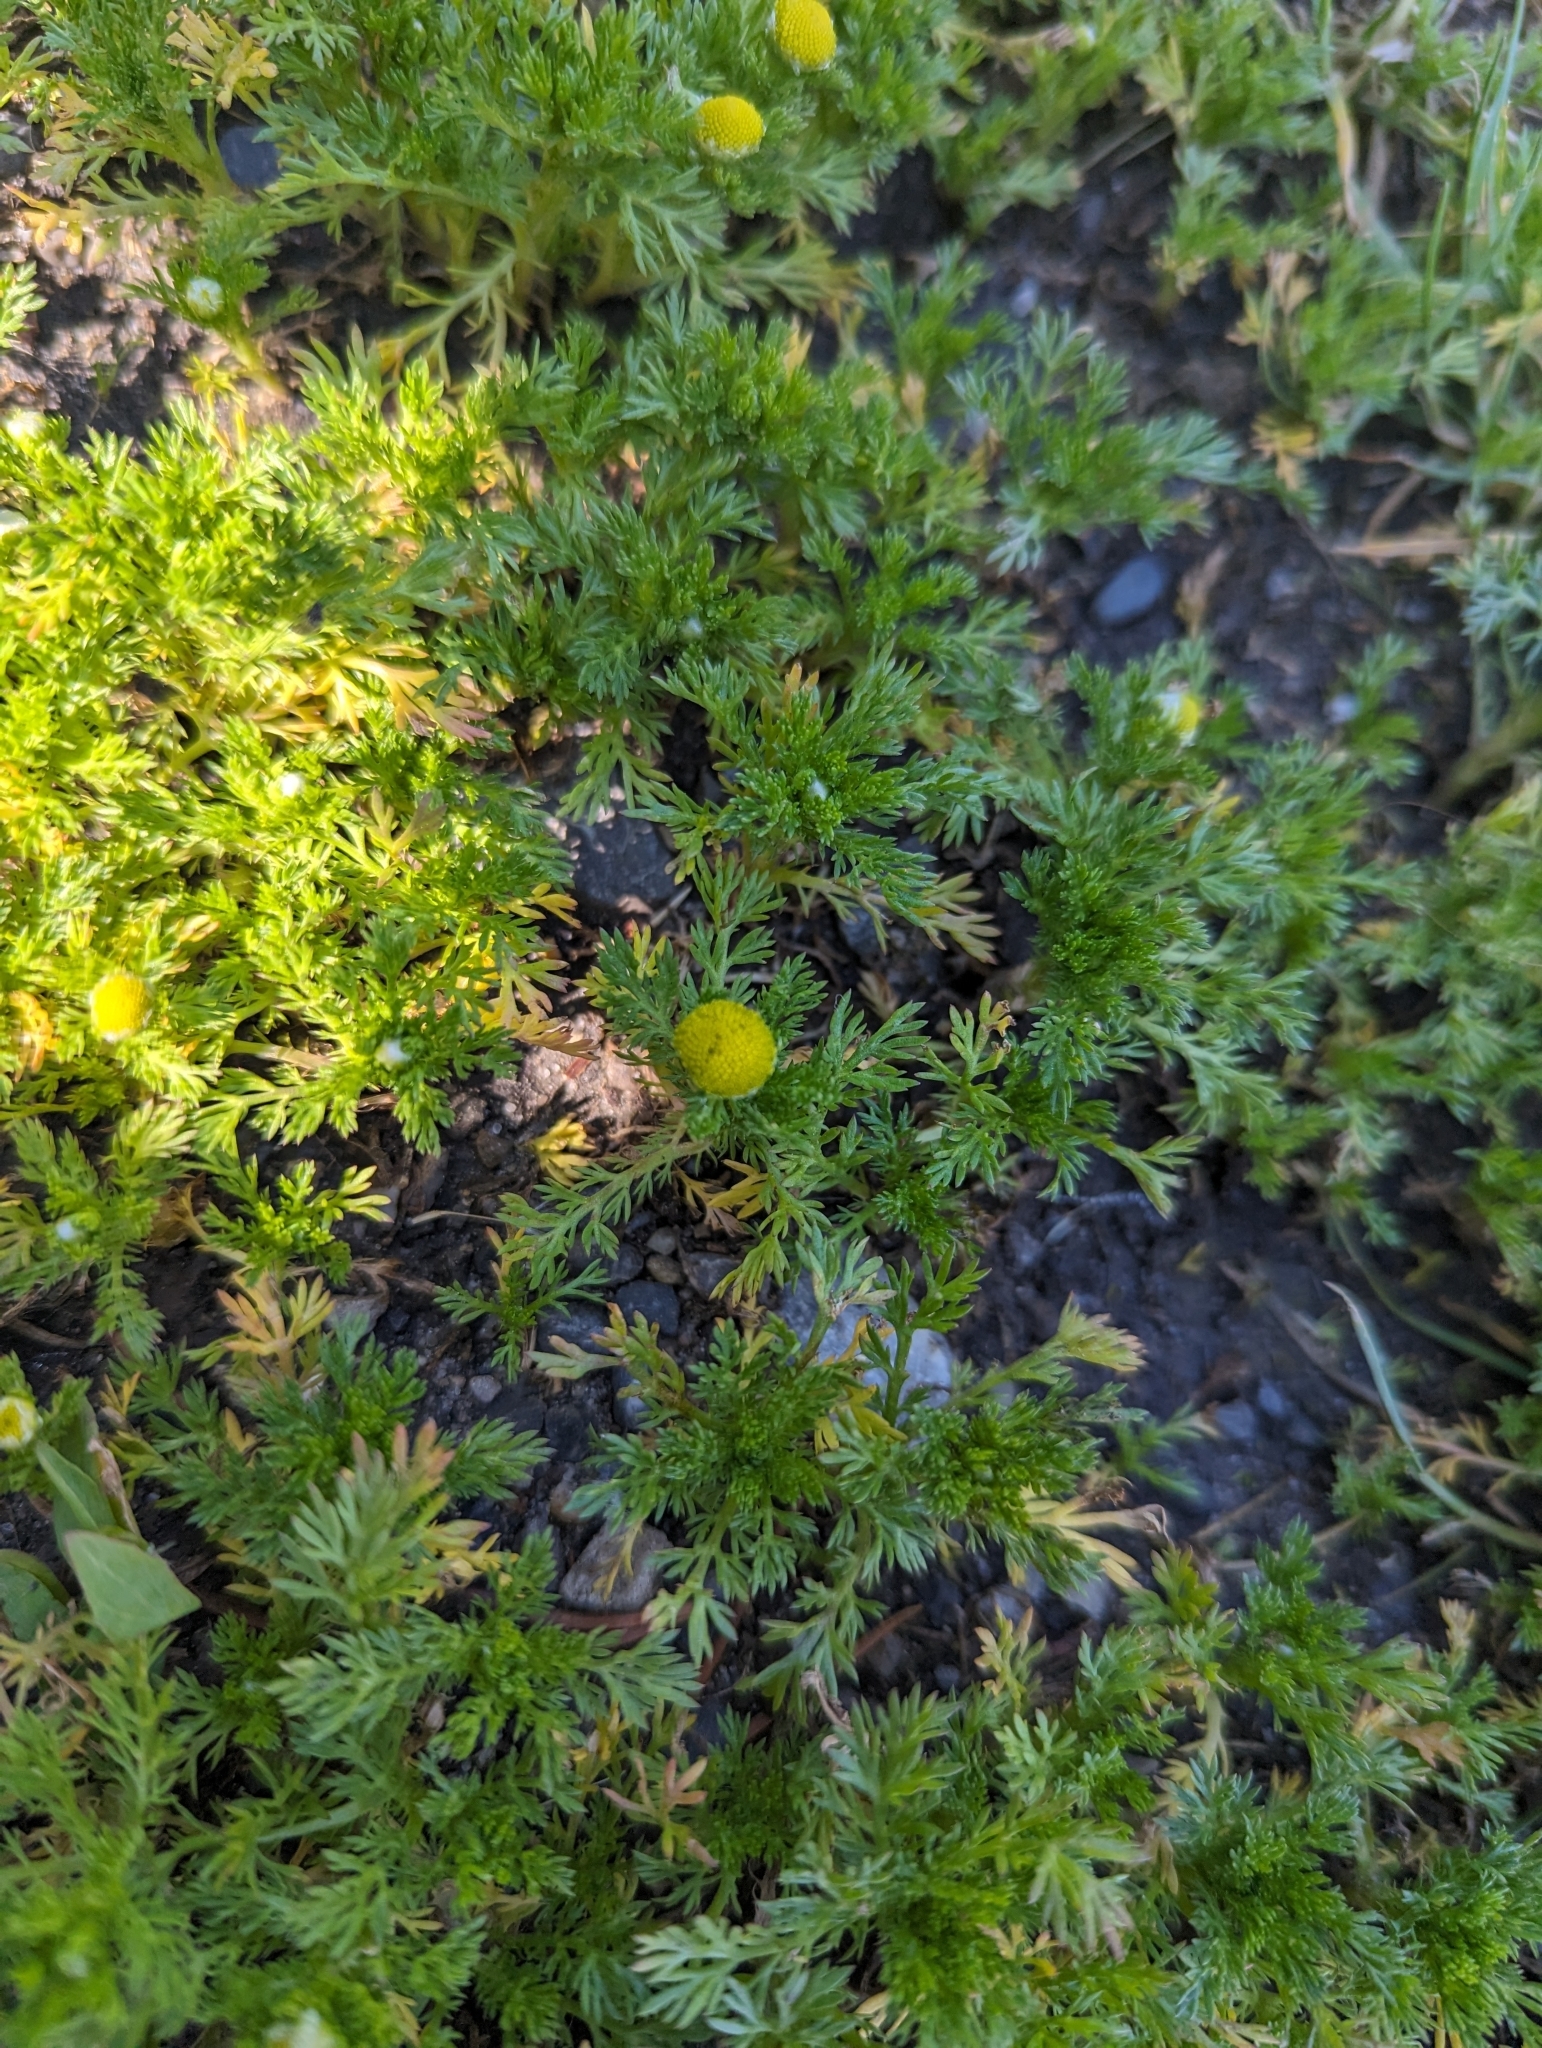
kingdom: Plantae
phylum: Tracheophyta
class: Magnoliopsida
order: Asterales
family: Asteraceae
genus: Matricaria
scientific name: Matricaria discoidea
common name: Disc mayweed
